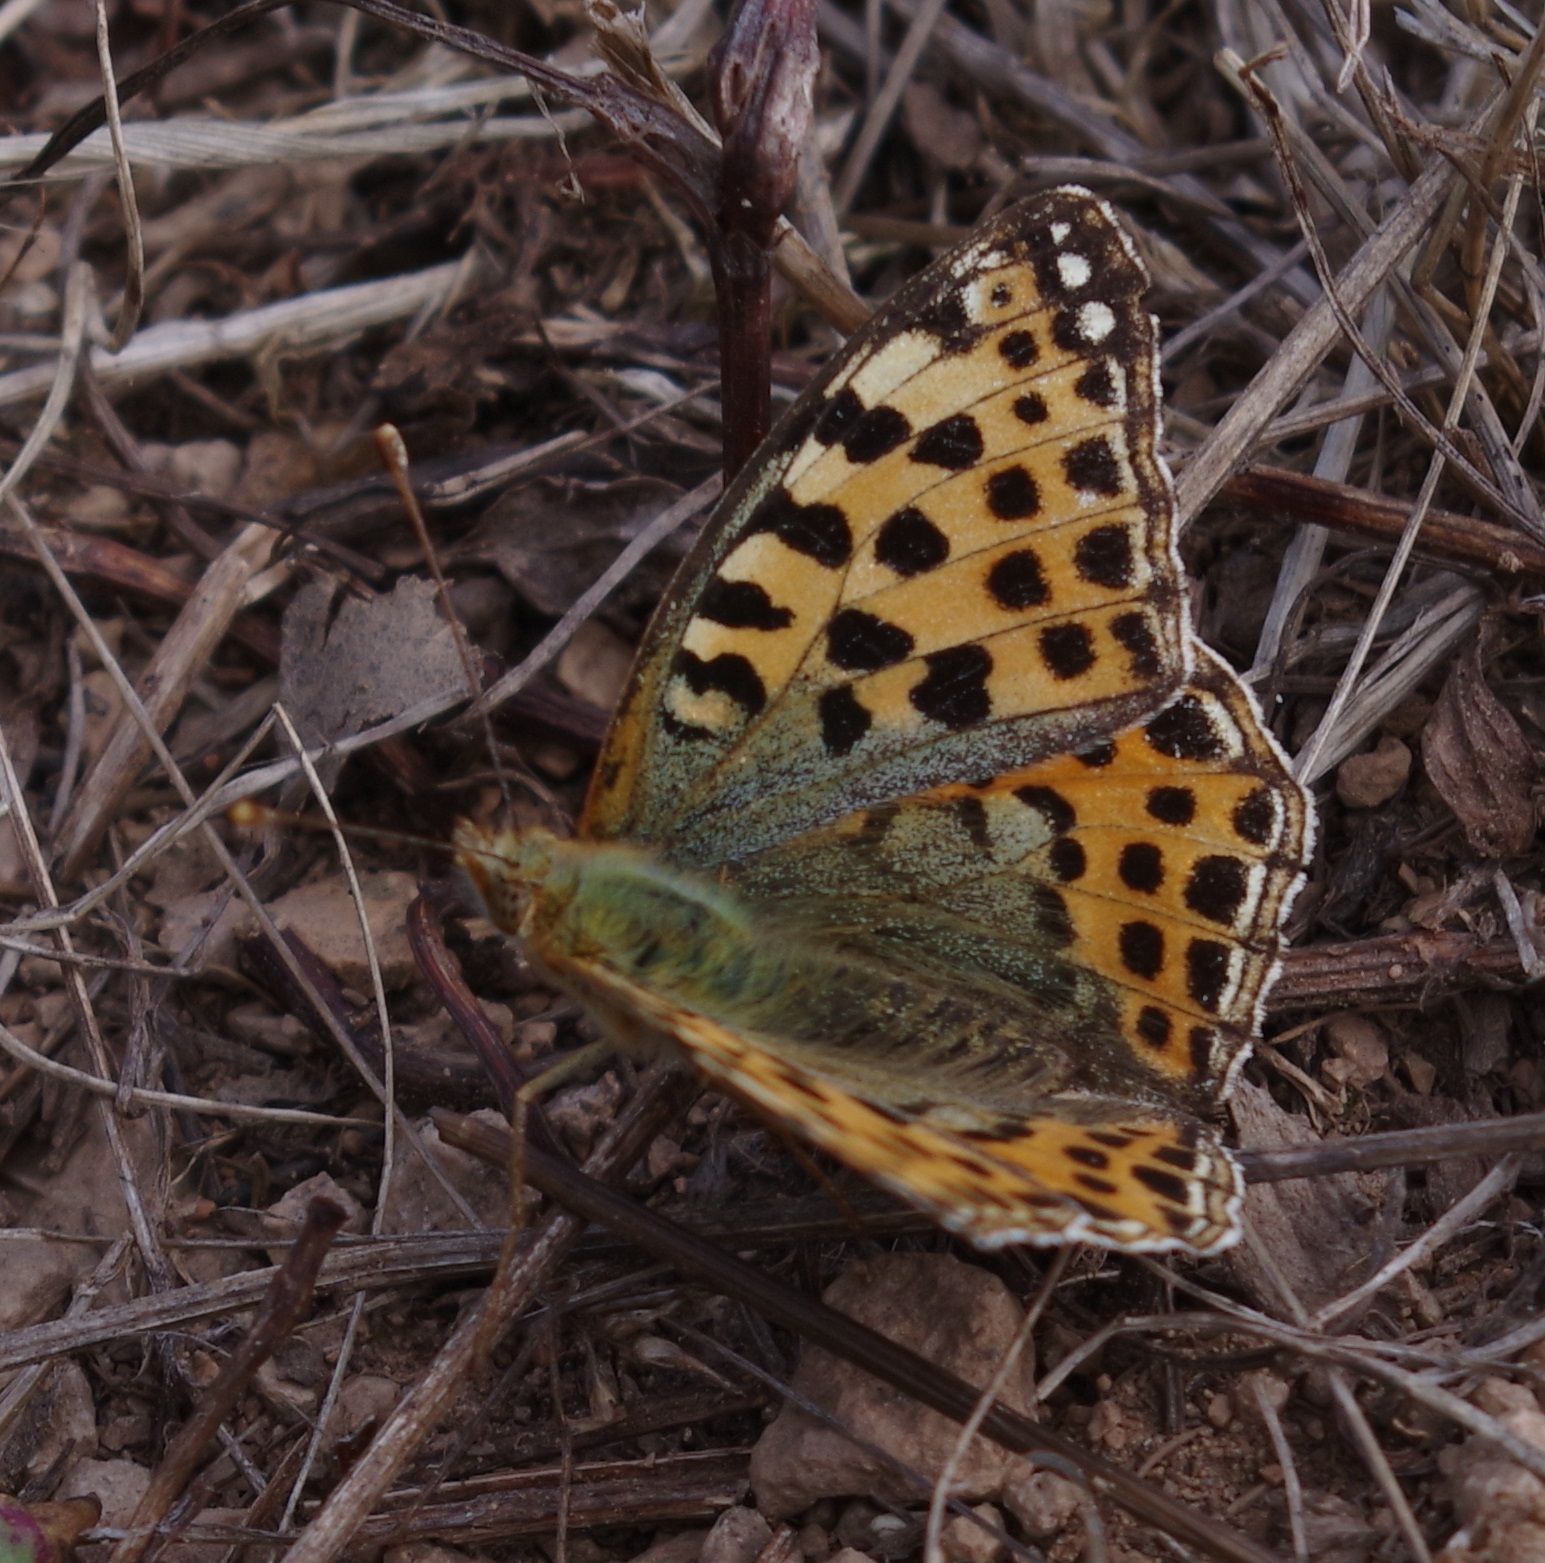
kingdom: Animalia
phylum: Arthropoda
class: Insecta
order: Lepidoptera
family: Nymphalidae
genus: Issoria
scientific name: Issoria lathonia
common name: Queen of spain fritillary
